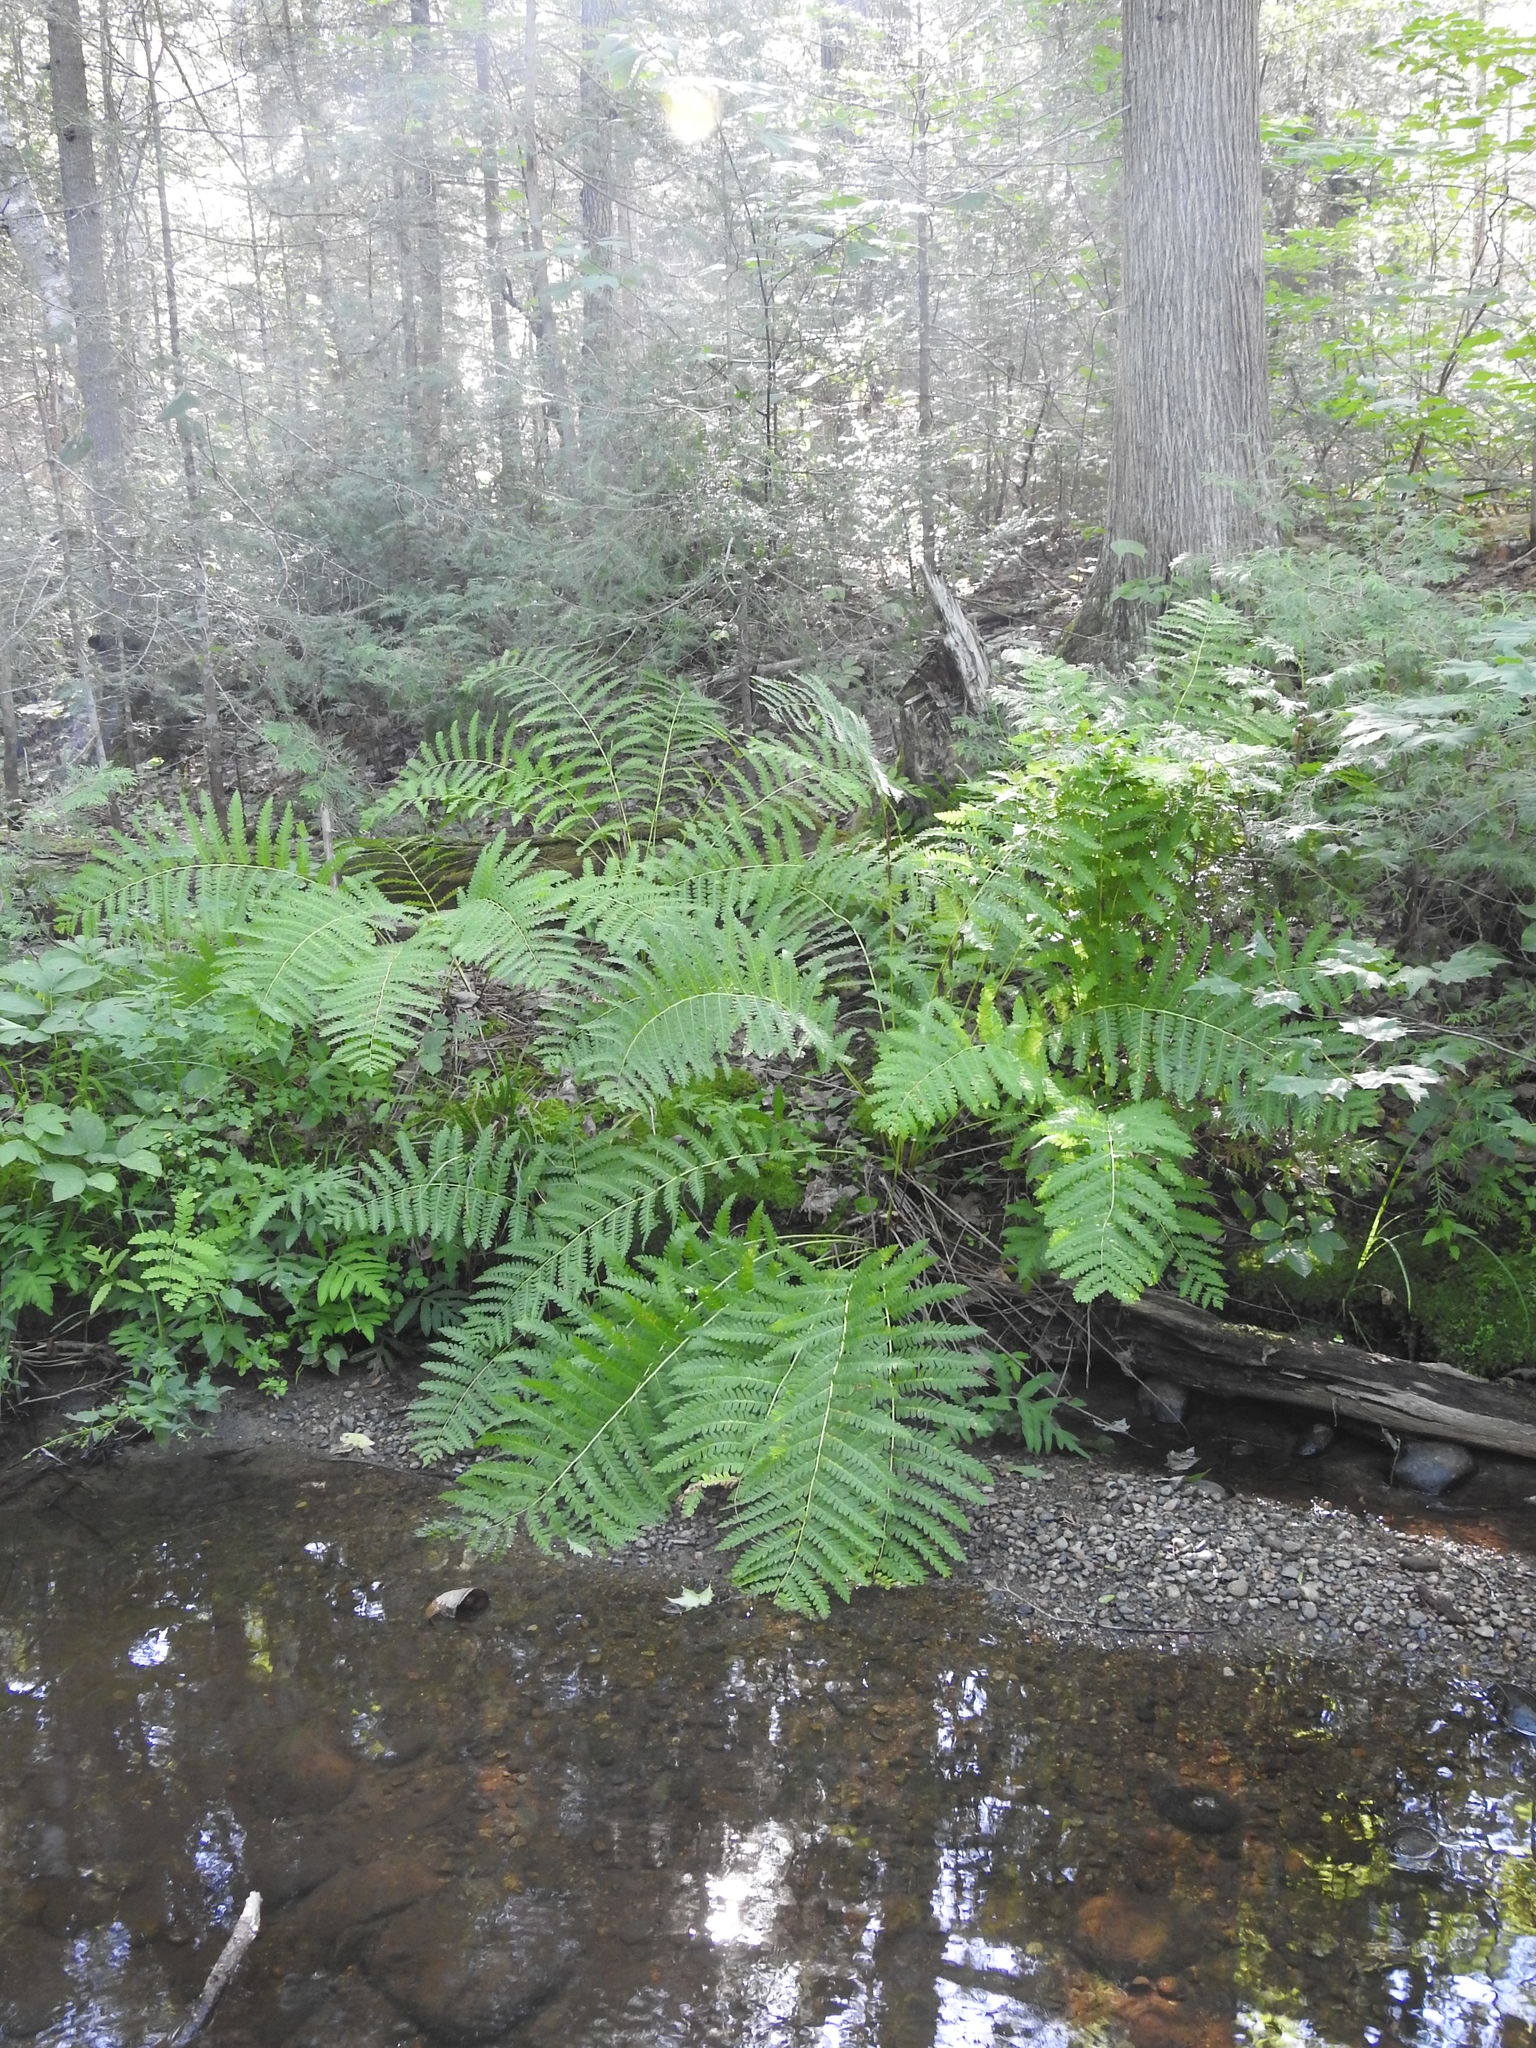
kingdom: Plantae
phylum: Tracheophyta
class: Polypodiopsida
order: Osmundales
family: Osmundaceae
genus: Claytosmunda
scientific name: Claytosmunda claytoniana
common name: Clayton's fern
